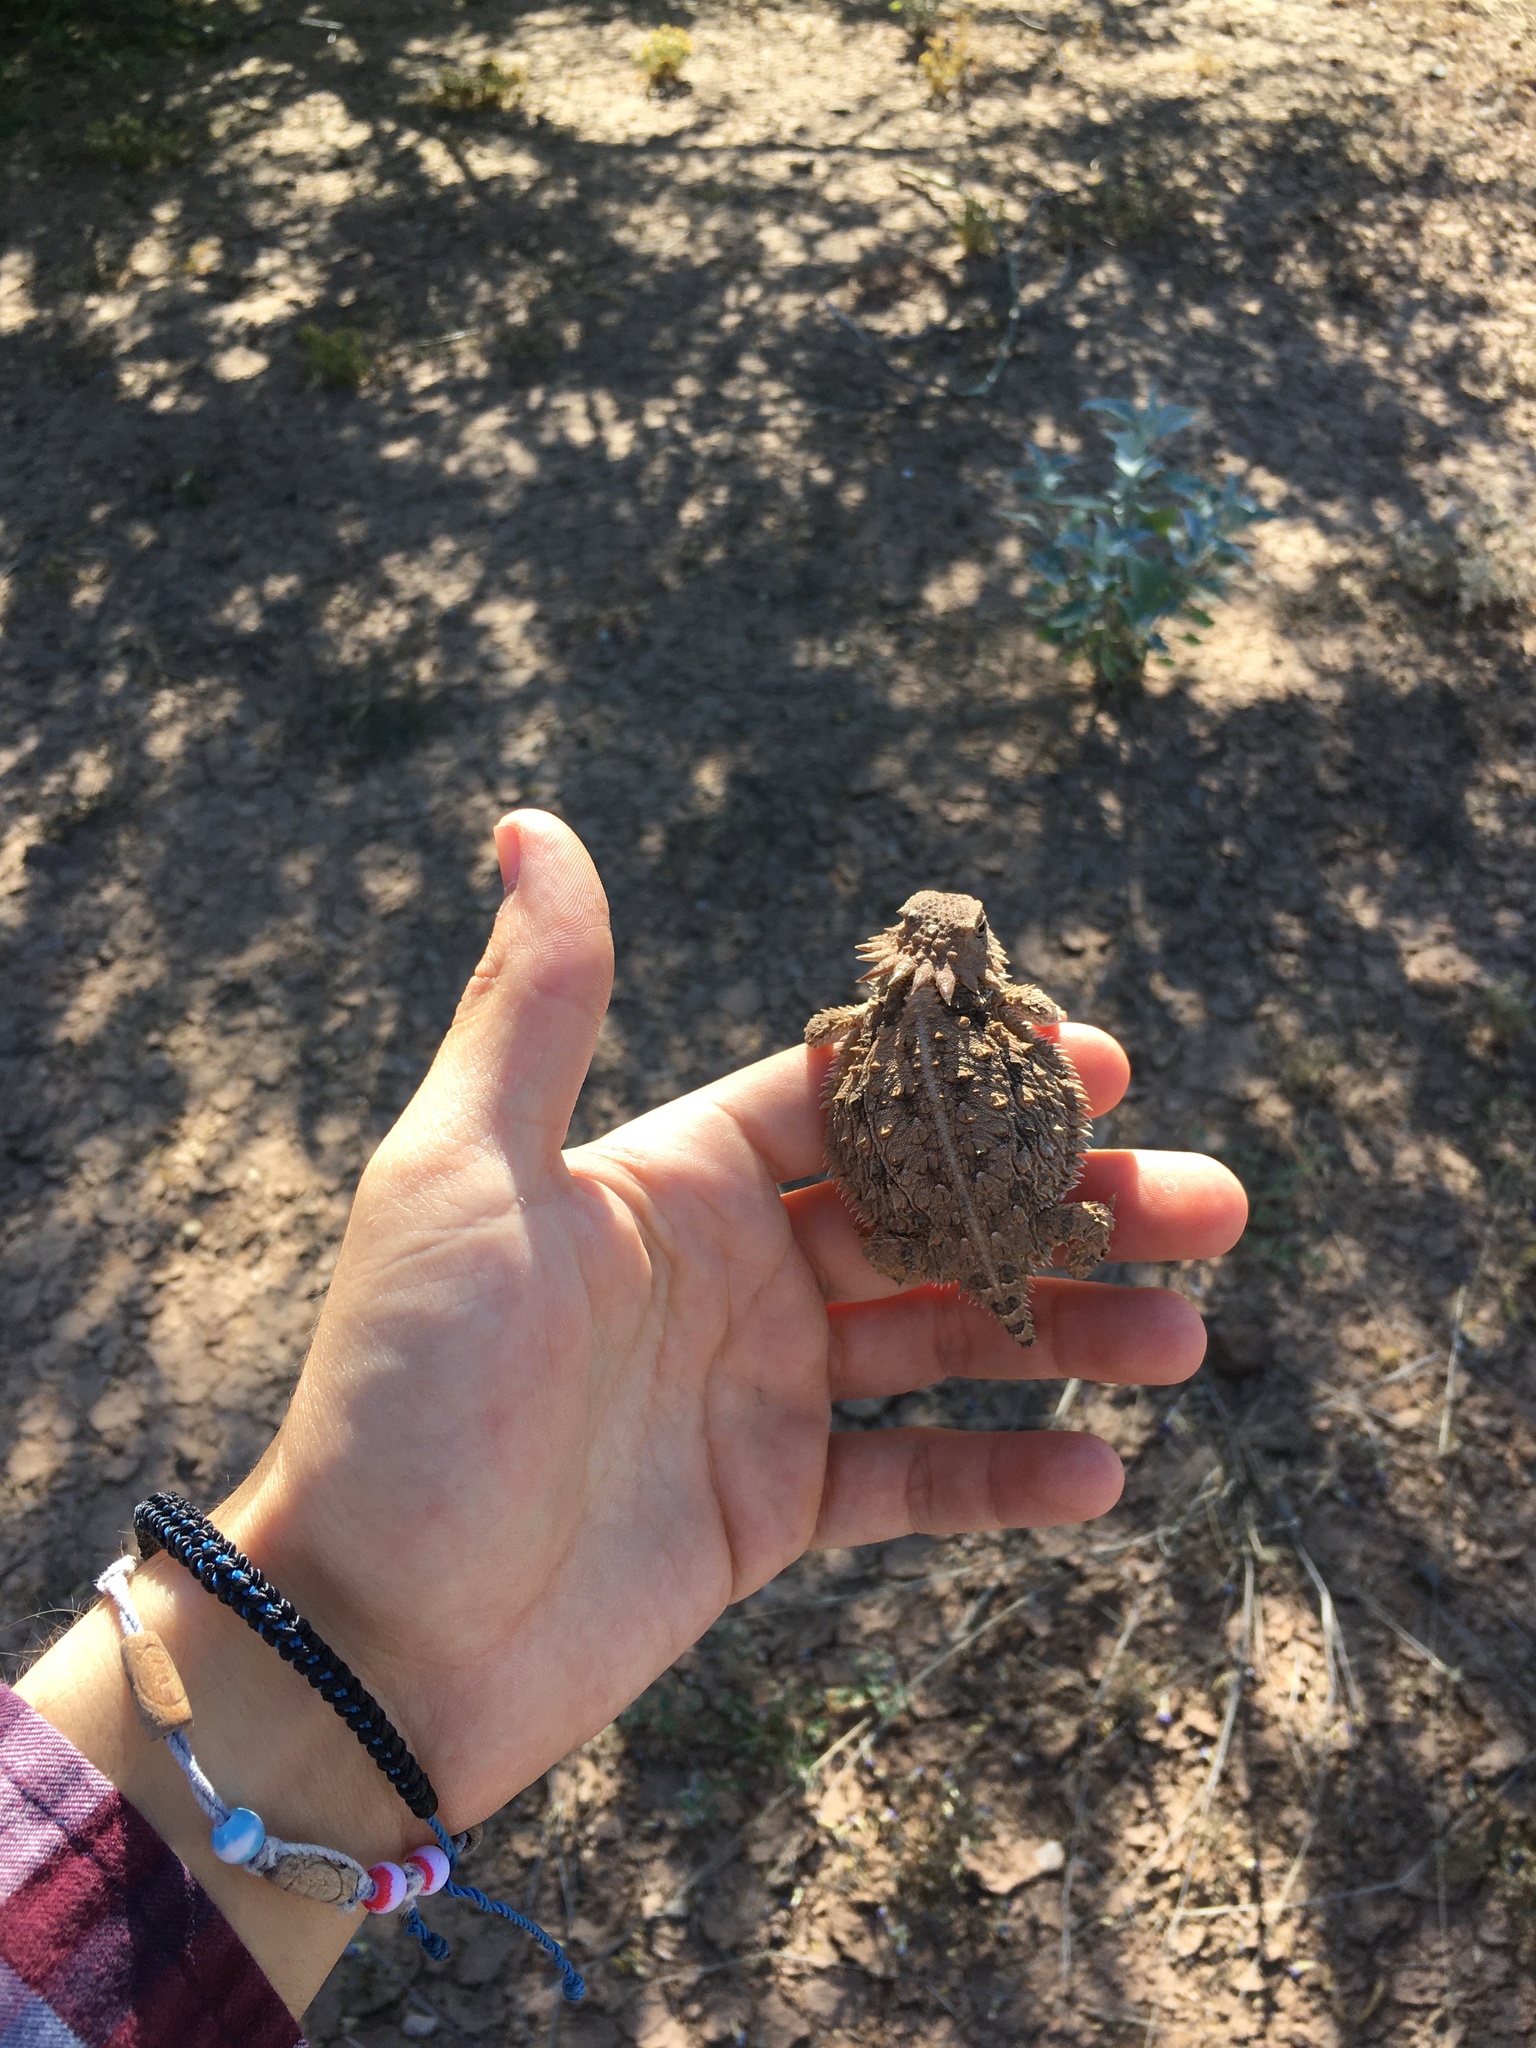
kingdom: Animalia
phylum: Chordata
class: Squamata
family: Phrynosomatidae
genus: Phrynosoma
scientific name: Phrynosoma solare
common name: Regal horned lizard
